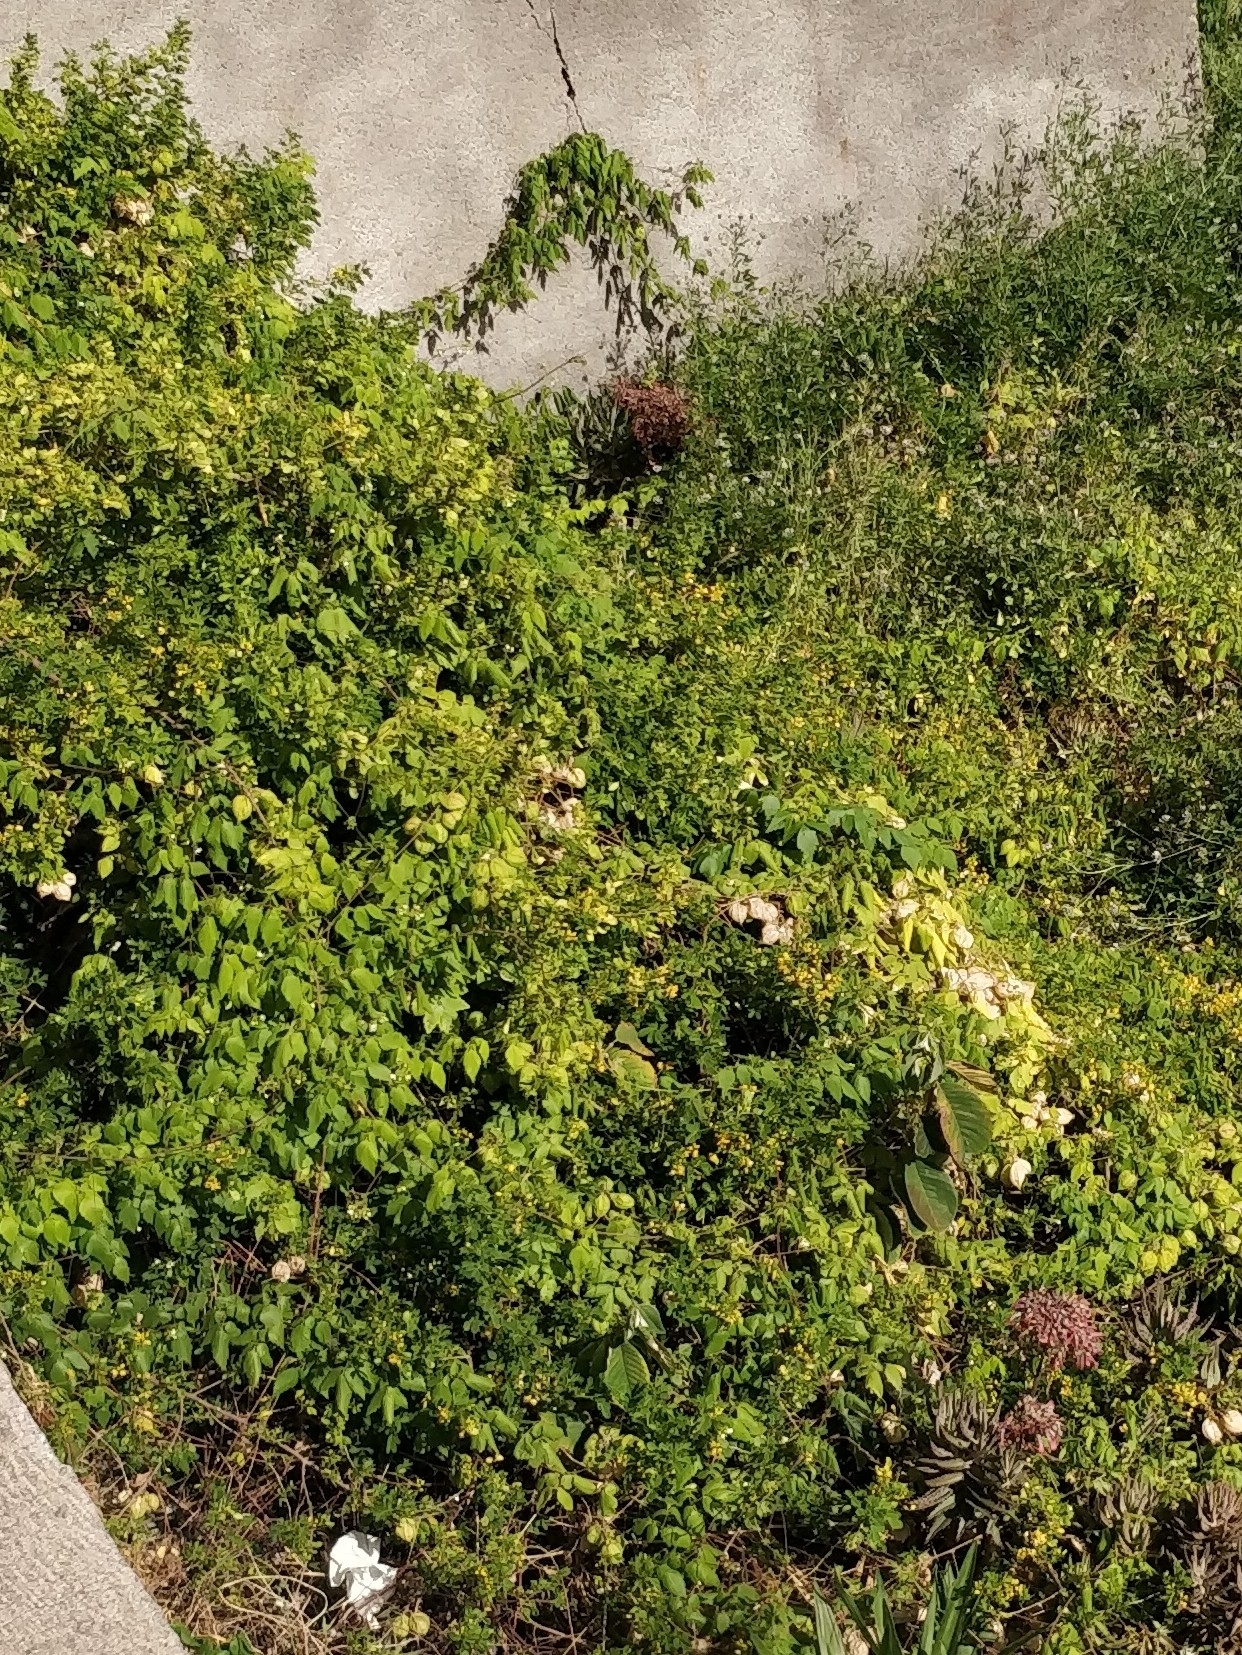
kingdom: Plantae
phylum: Tracheophyta
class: Magnoliopsida
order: Sapindales
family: Sapindaceae
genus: Cardiospermum
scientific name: Cardiospermum grandiflorum
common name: Balloon vine
